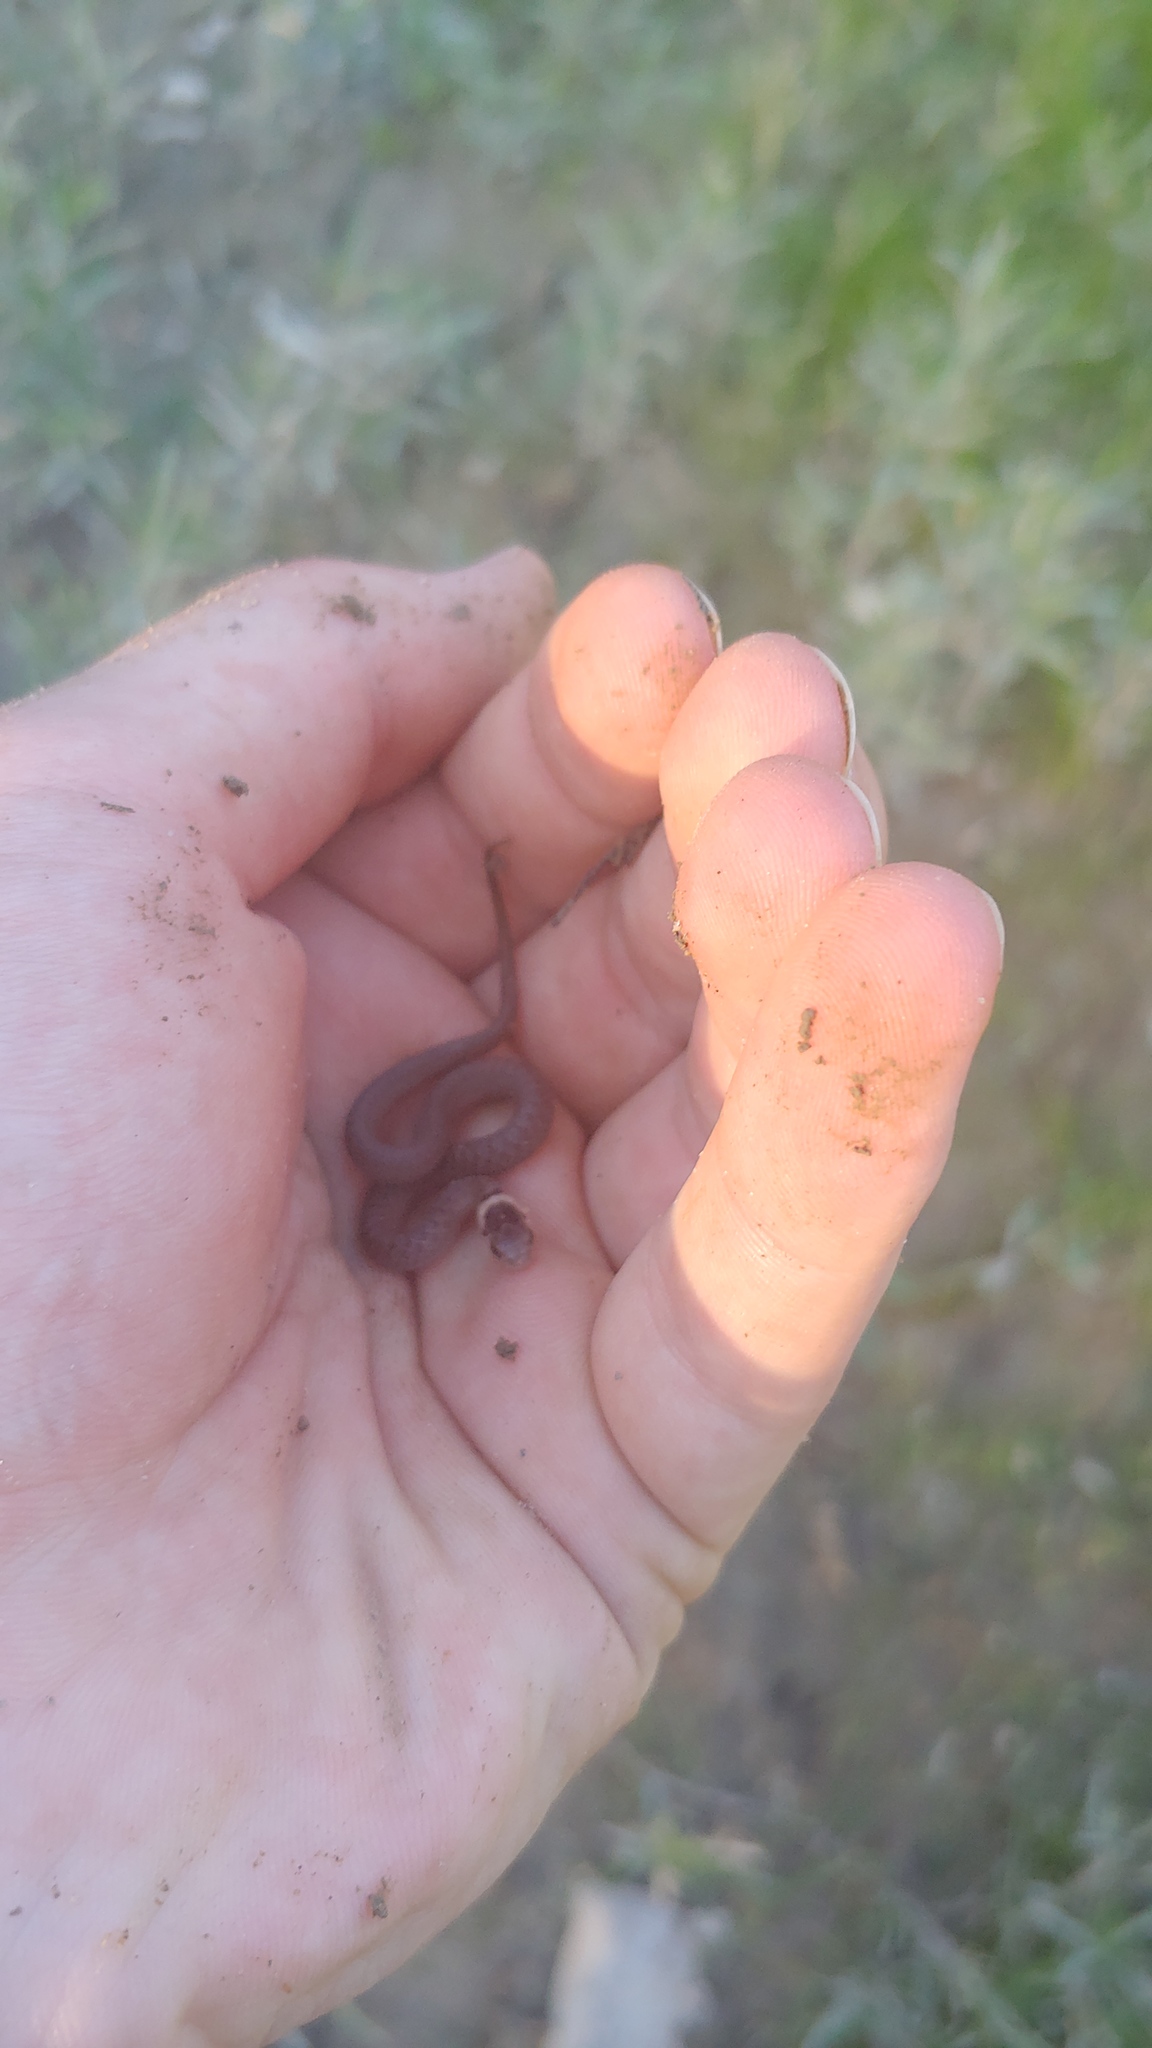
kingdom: Animalia
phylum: Chordata
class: Squamata
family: Colubridae
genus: Storeria
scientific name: Storeria dekayi
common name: (dekay’s) brown snake
